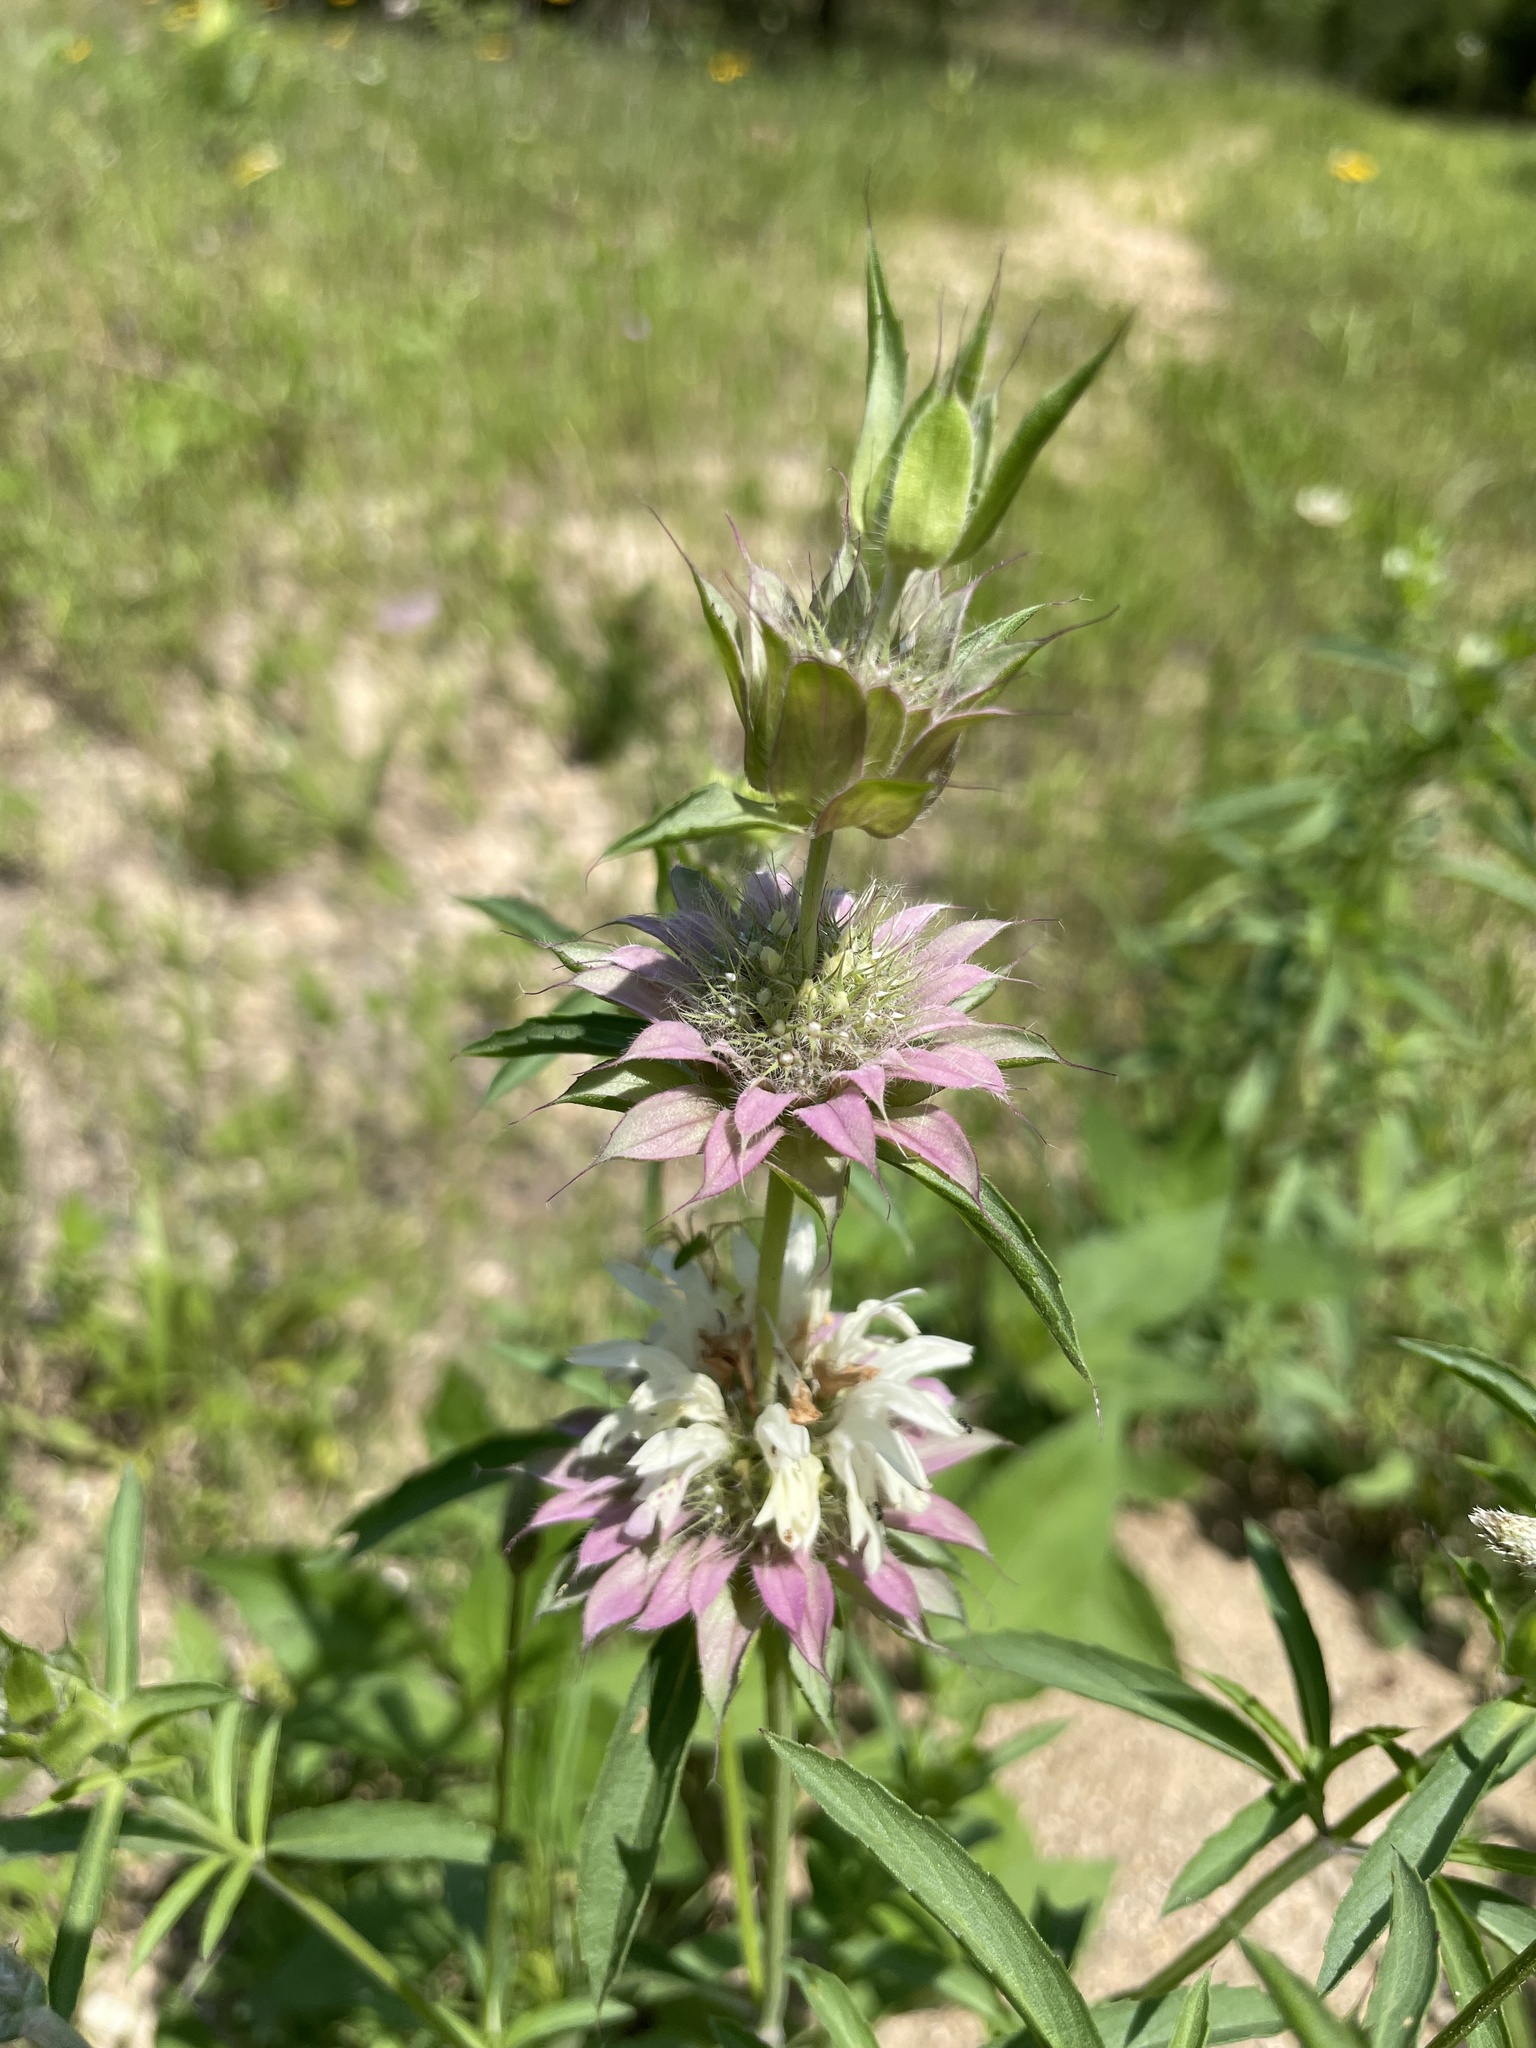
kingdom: Plantae
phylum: Tracheophyta
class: Magnoliopsida
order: Lamiales
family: Lamiaceae
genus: Monarda
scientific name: Monarda citriodora
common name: Lemon beebalm
